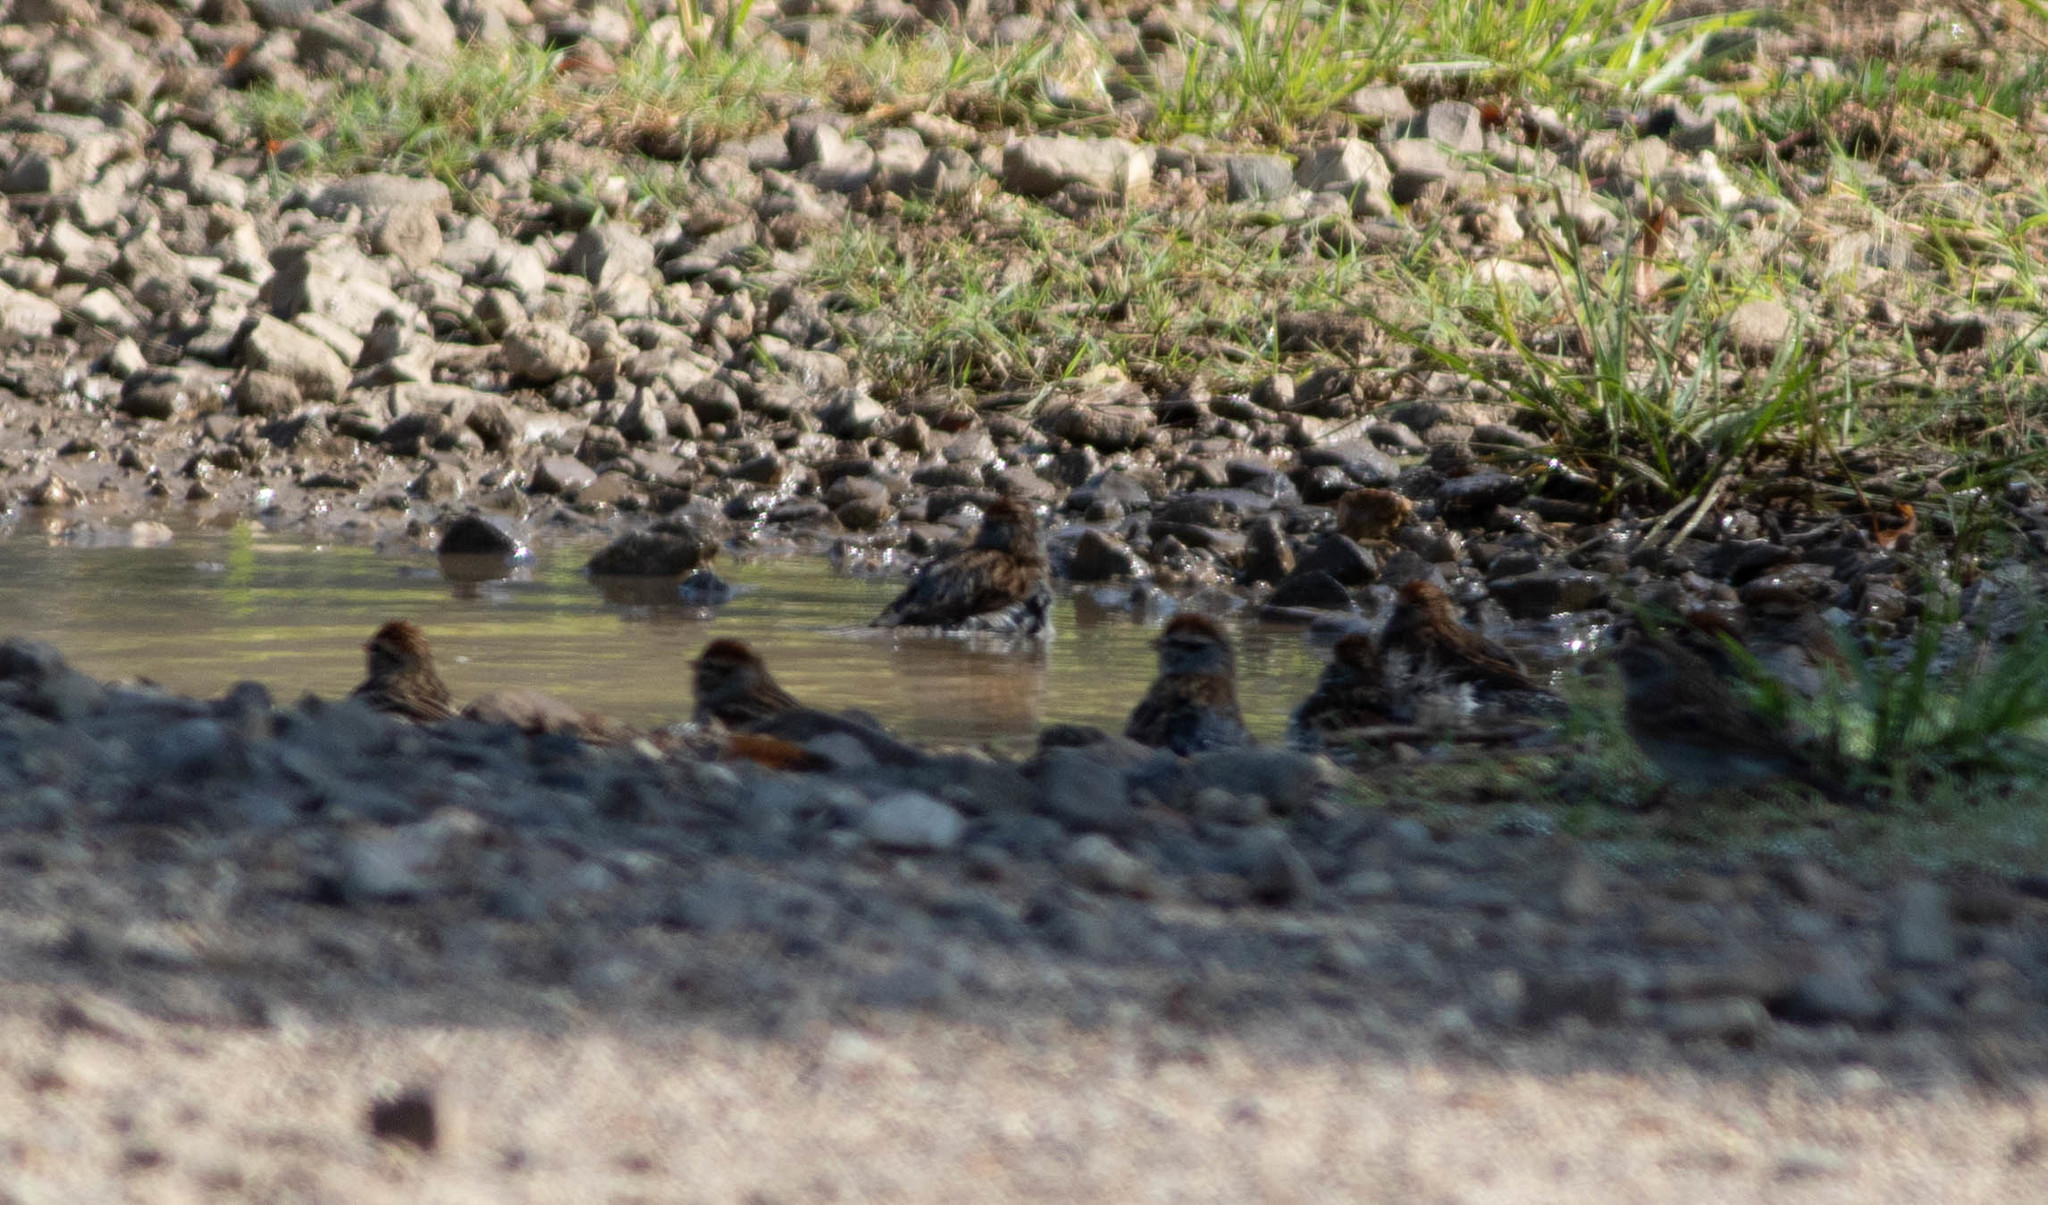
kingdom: Animalia
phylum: Chordata
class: Aves
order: Passeriformes
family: Passerellidae
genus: Spizella
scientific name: Spizella passerina
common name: Chipping sparrow
